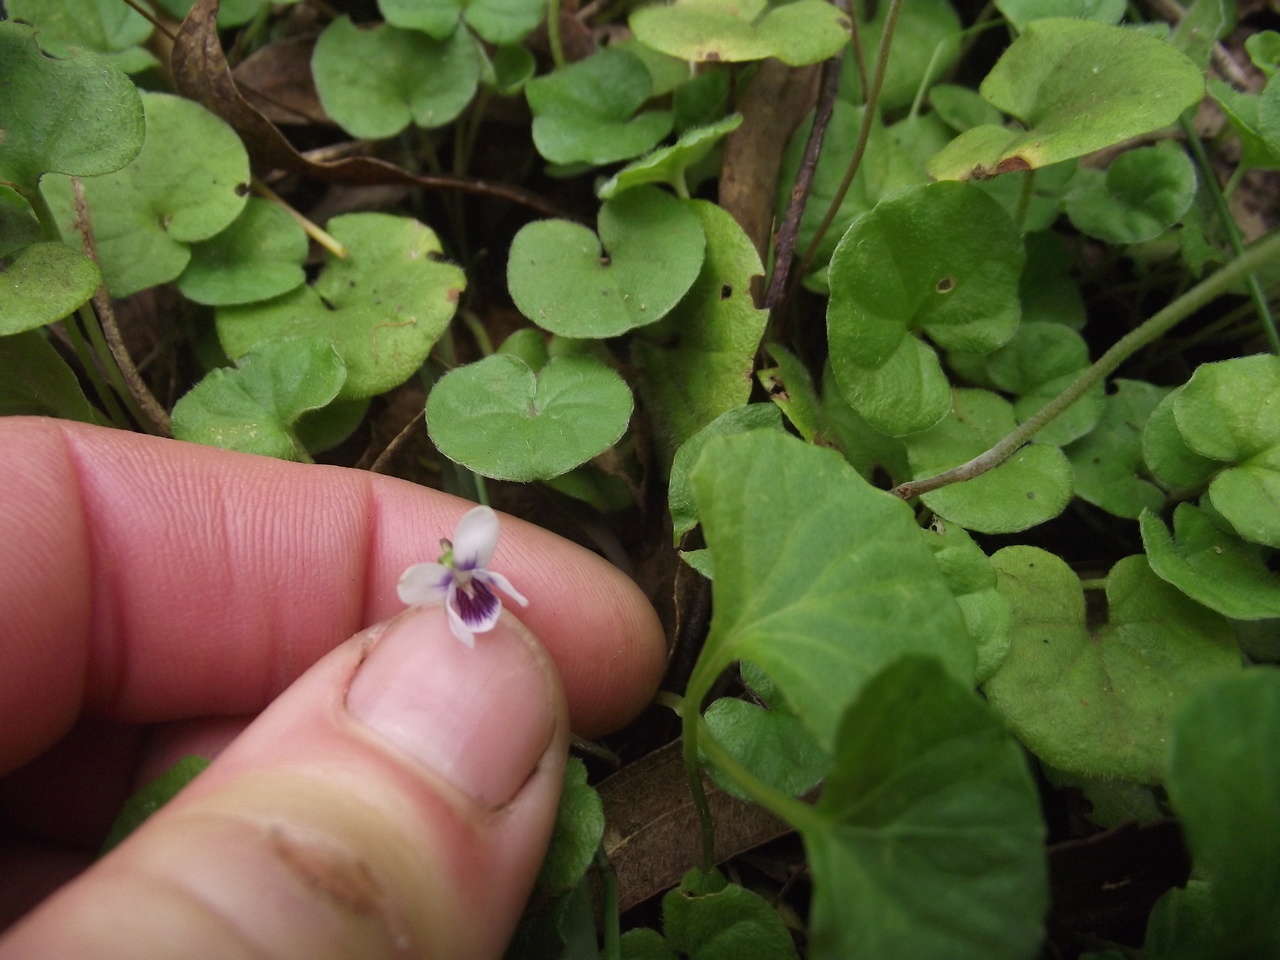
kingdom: Plantae
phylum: Tracheophyta
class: Magnoliopsida
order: Malpighiales
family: Violaceae
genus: Viola
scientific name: Viola hederacea
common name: Australian violet
